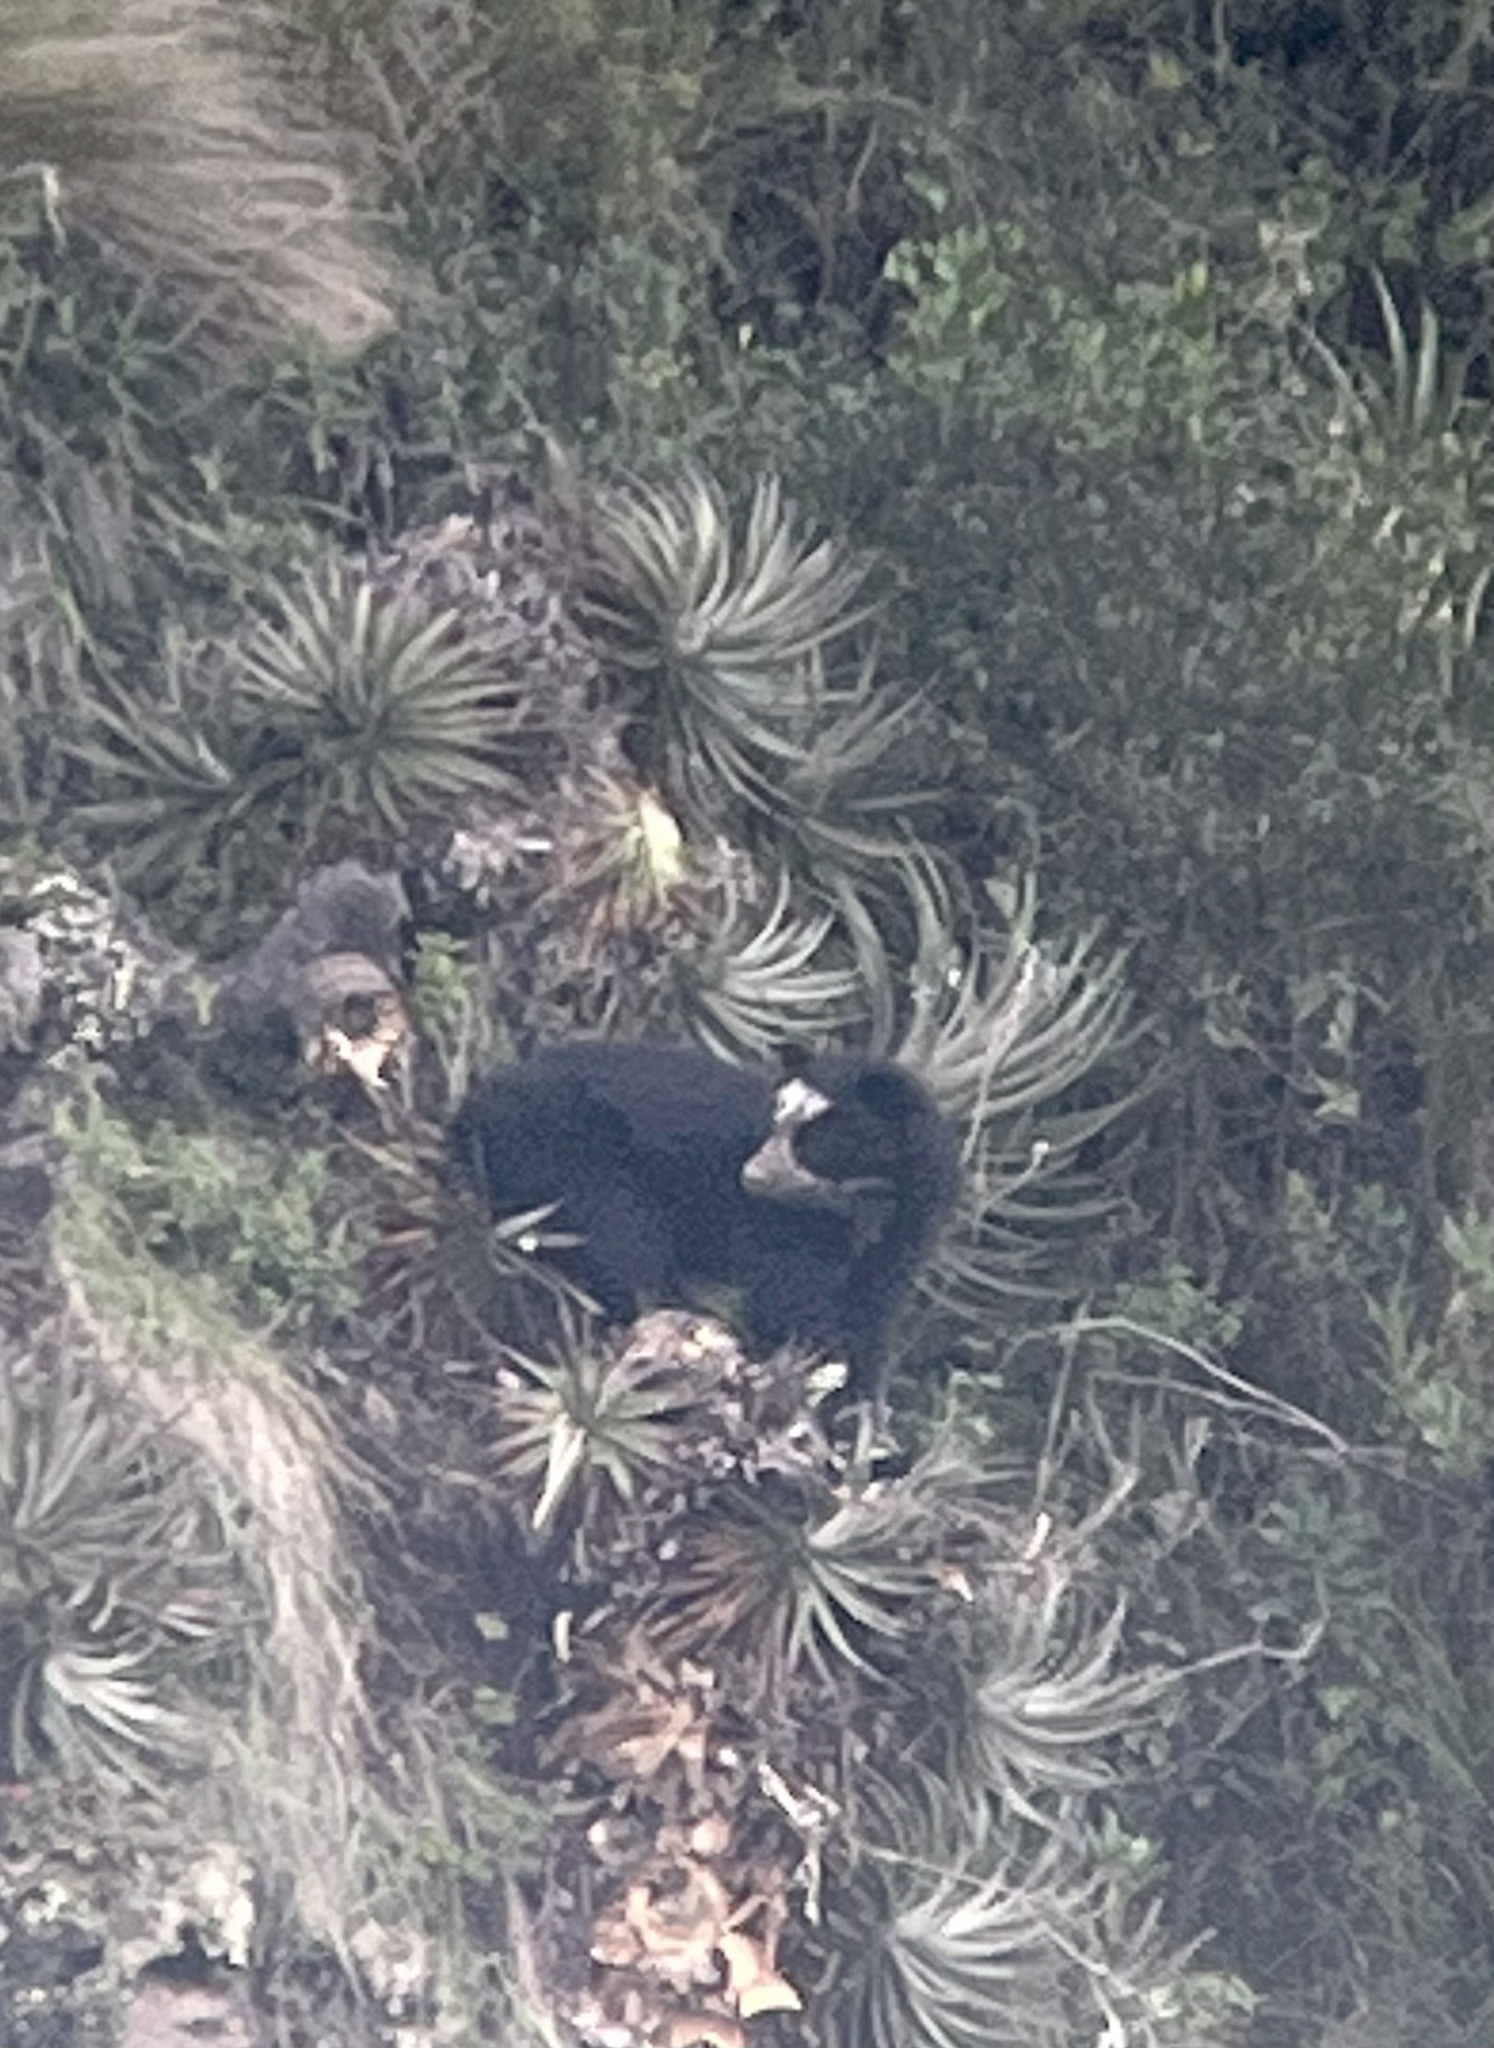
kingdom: Animalia
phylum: Chordata
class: Mammalia
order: Carnivora
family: Ursidae
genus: Tremarctos
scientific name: Tremarctos ornatus
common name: Spectacled bear
